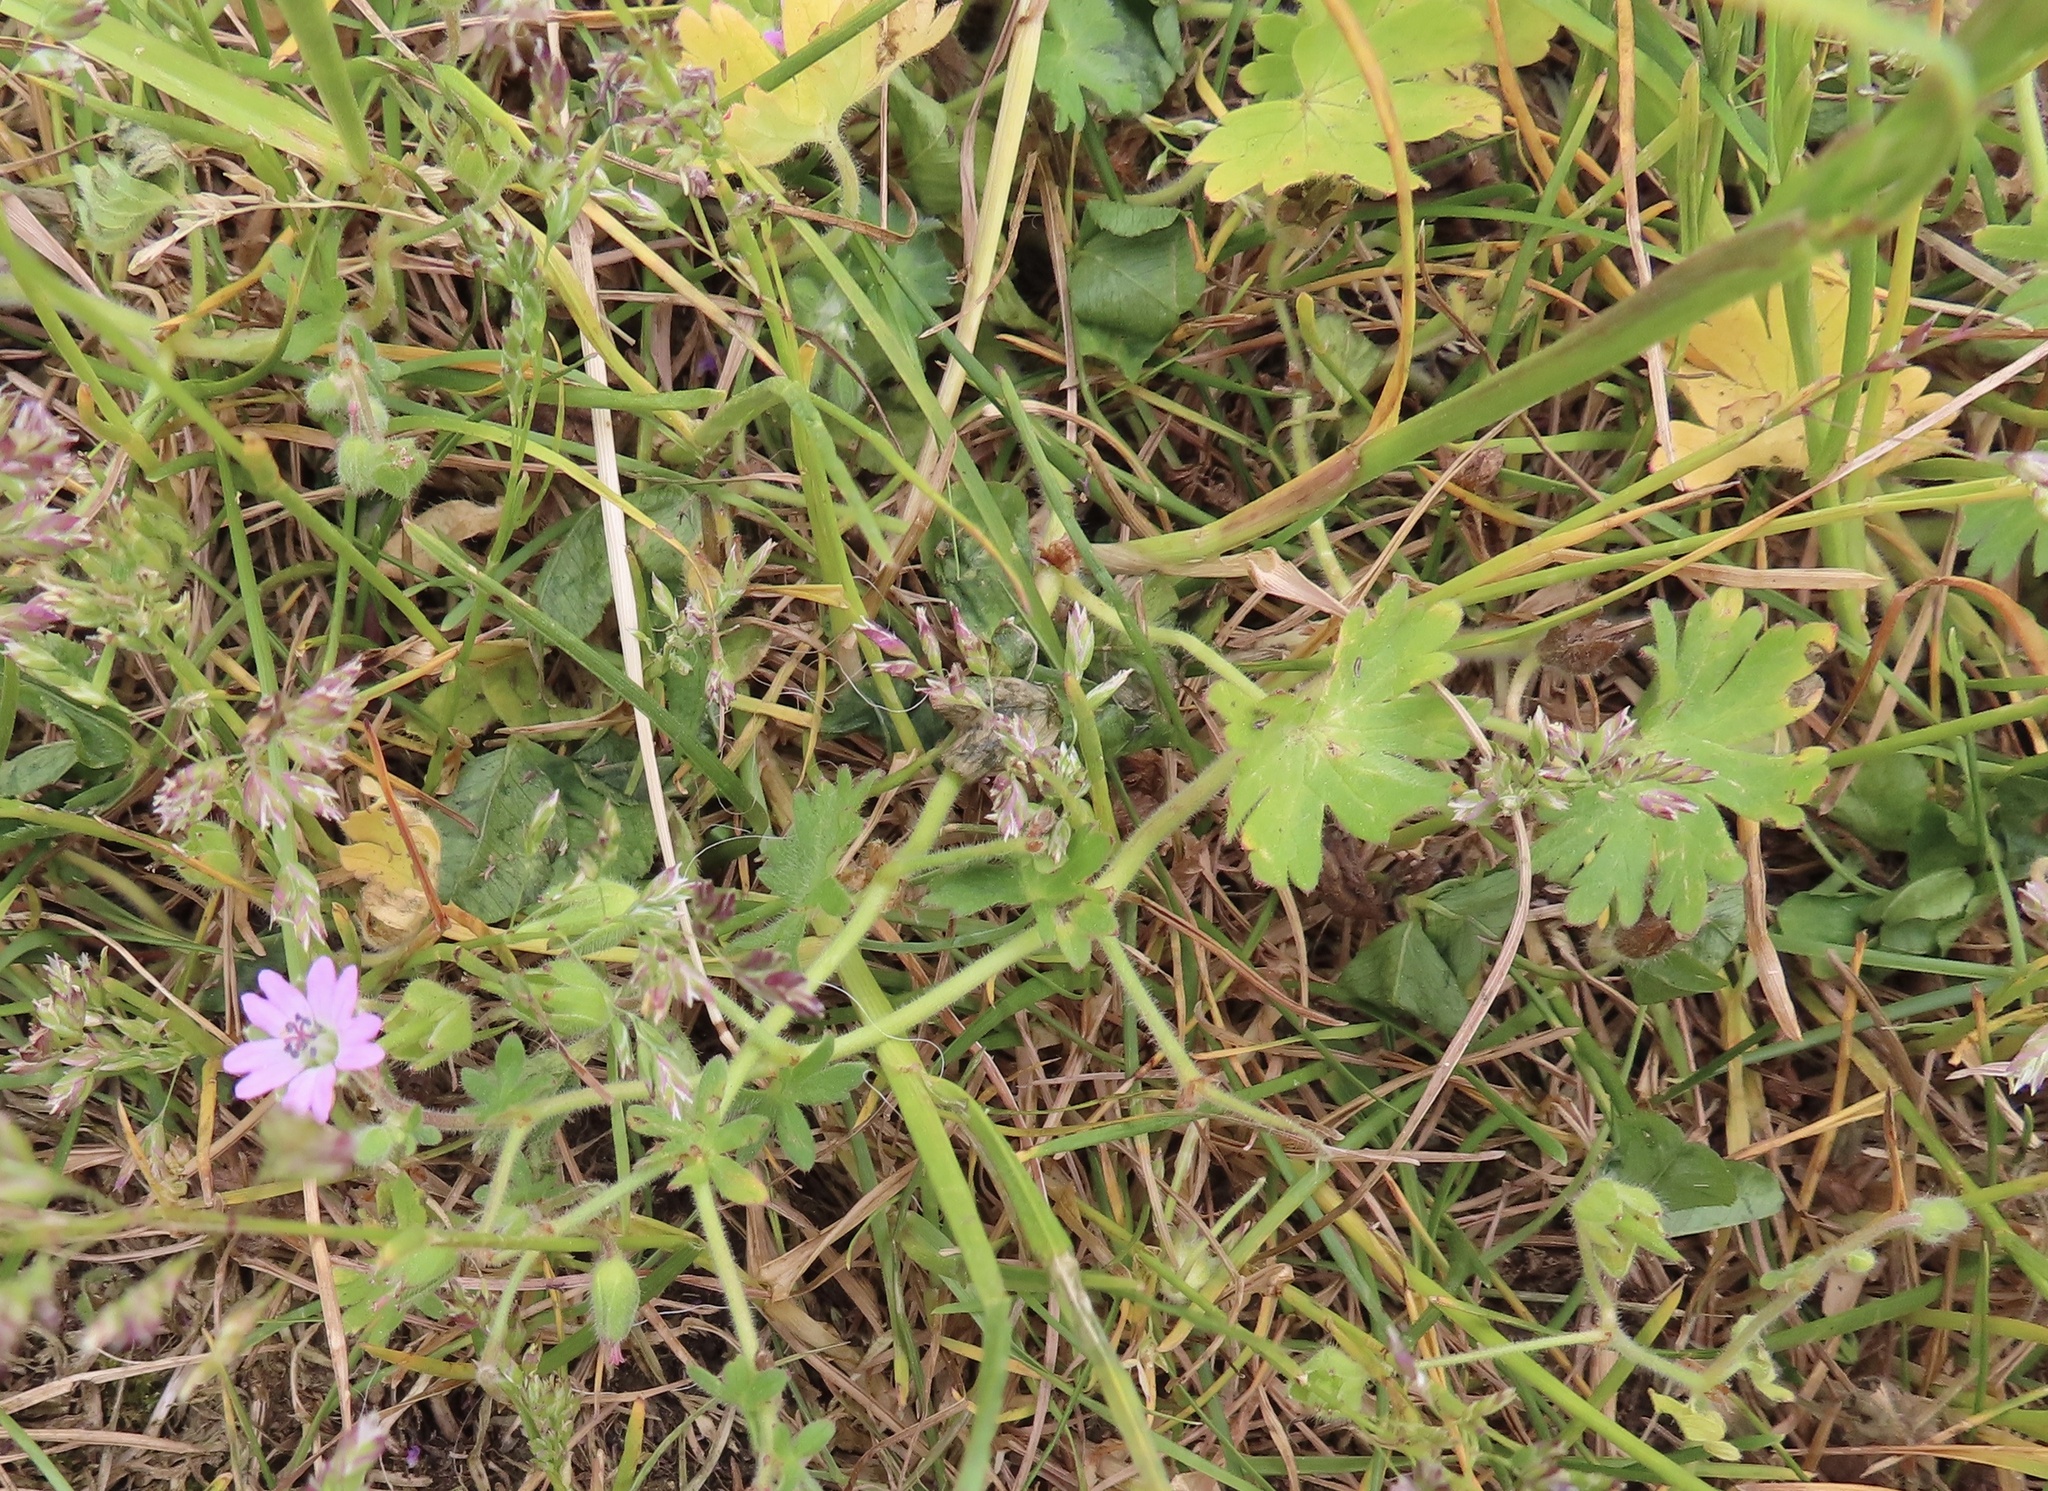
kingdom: Plantae
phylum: Tracheophyta
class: Magnoliopsida
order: Geraniales
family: Geraniaceae
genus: Geranium
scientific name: Geranium molle
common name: Dove's-foot crane's-bill
